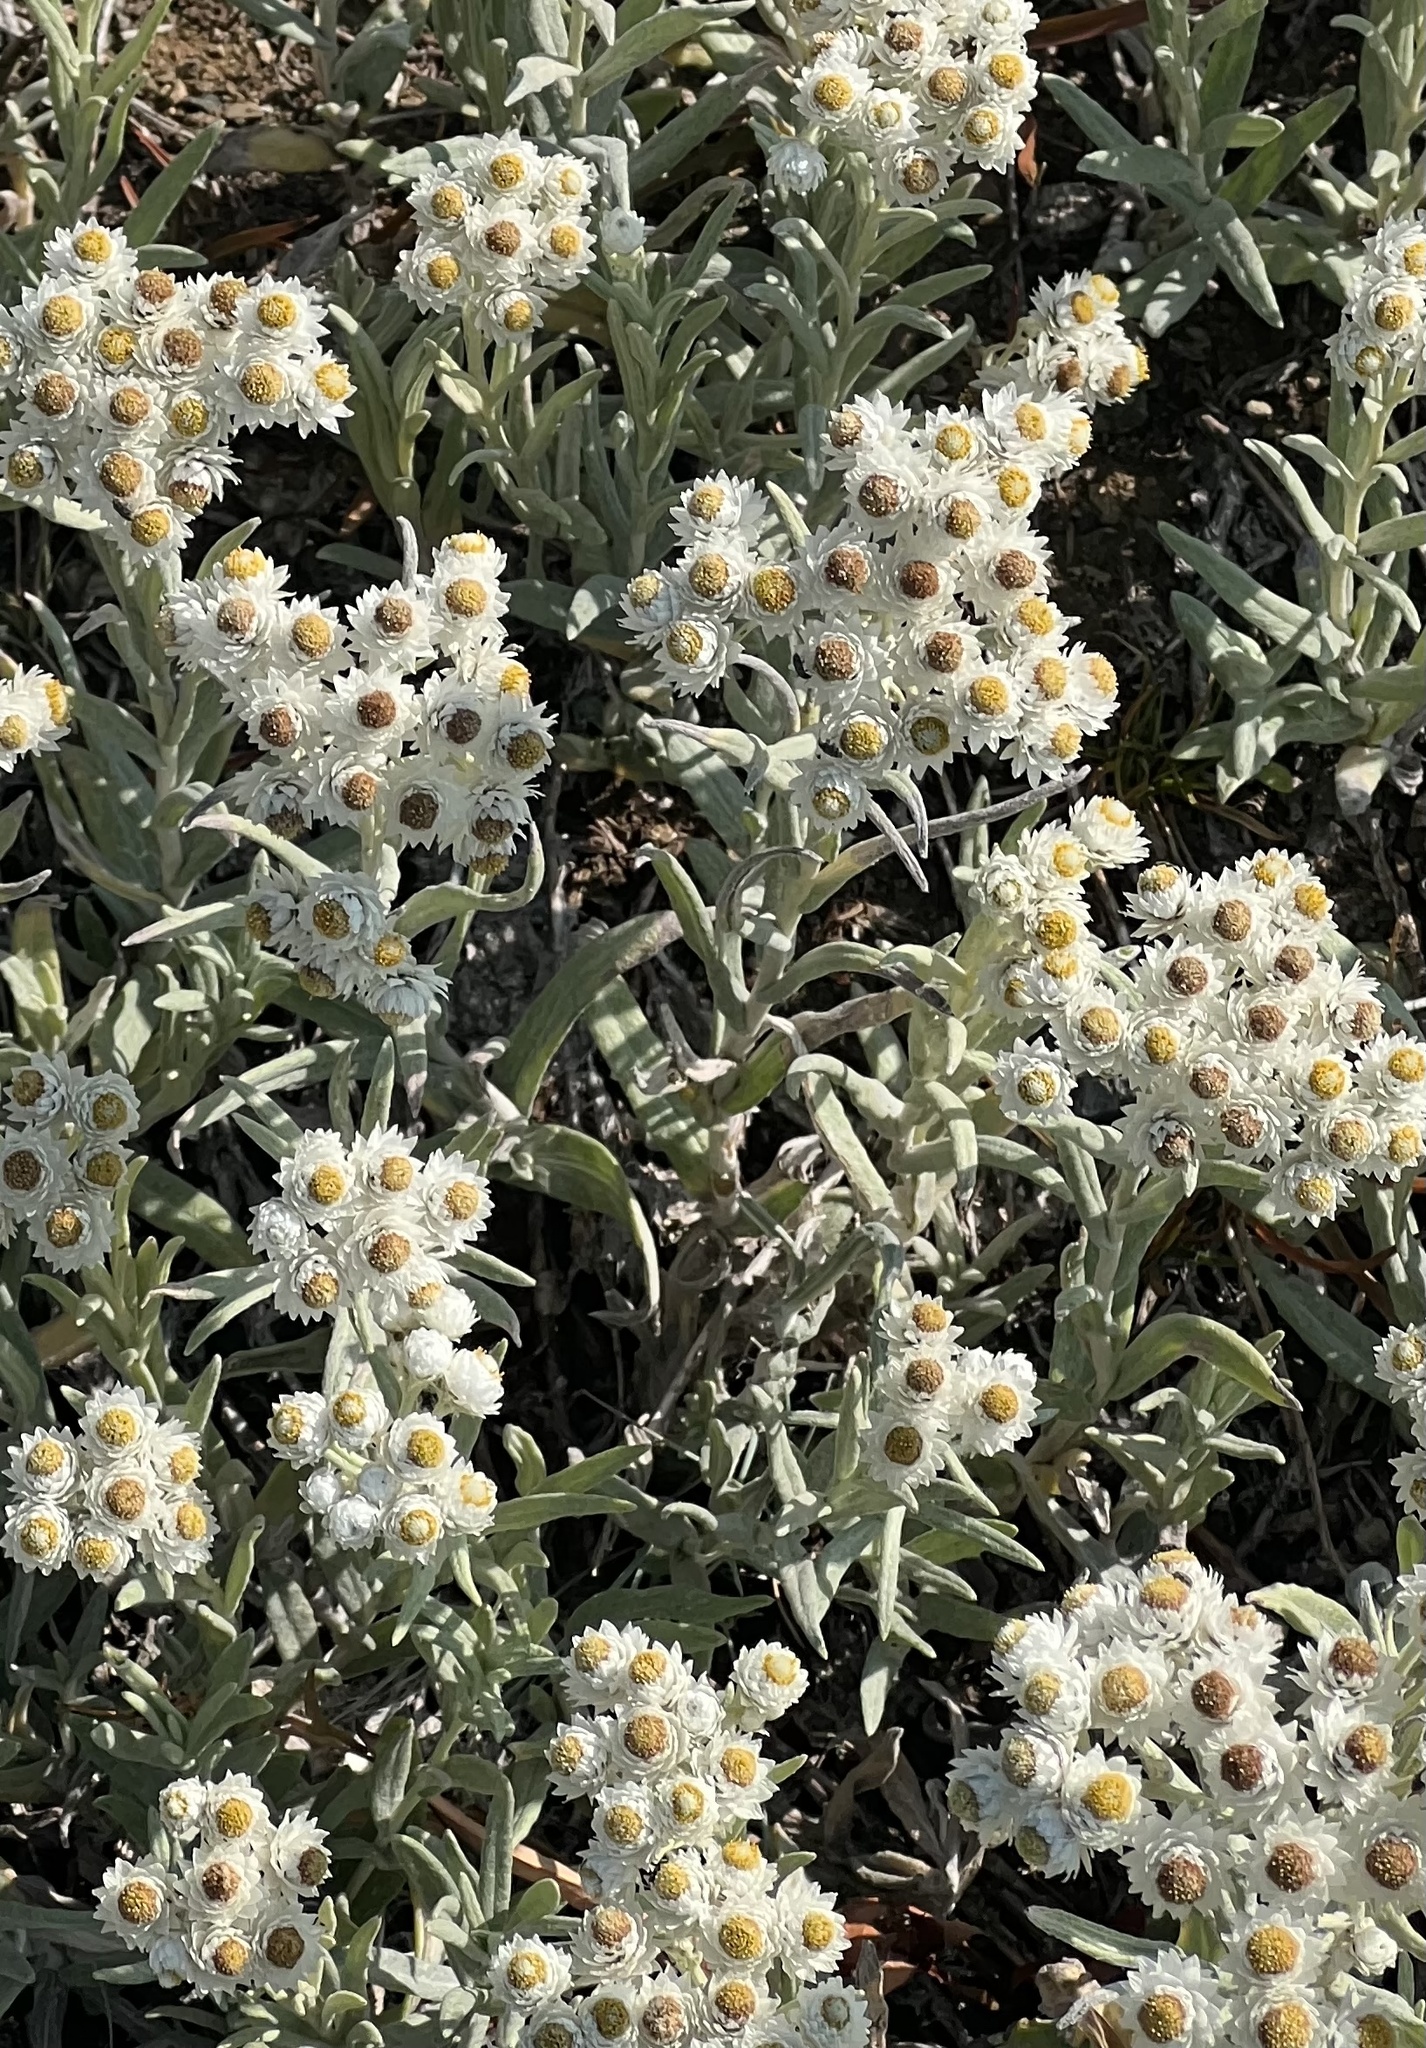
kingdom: Plantae
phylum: Tracheophyta
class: Magnoliopsida
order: Asterales
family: Asteraceae
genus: Anaphalis
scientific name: Anaphalis margaritacea
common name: Pearly everlasting
